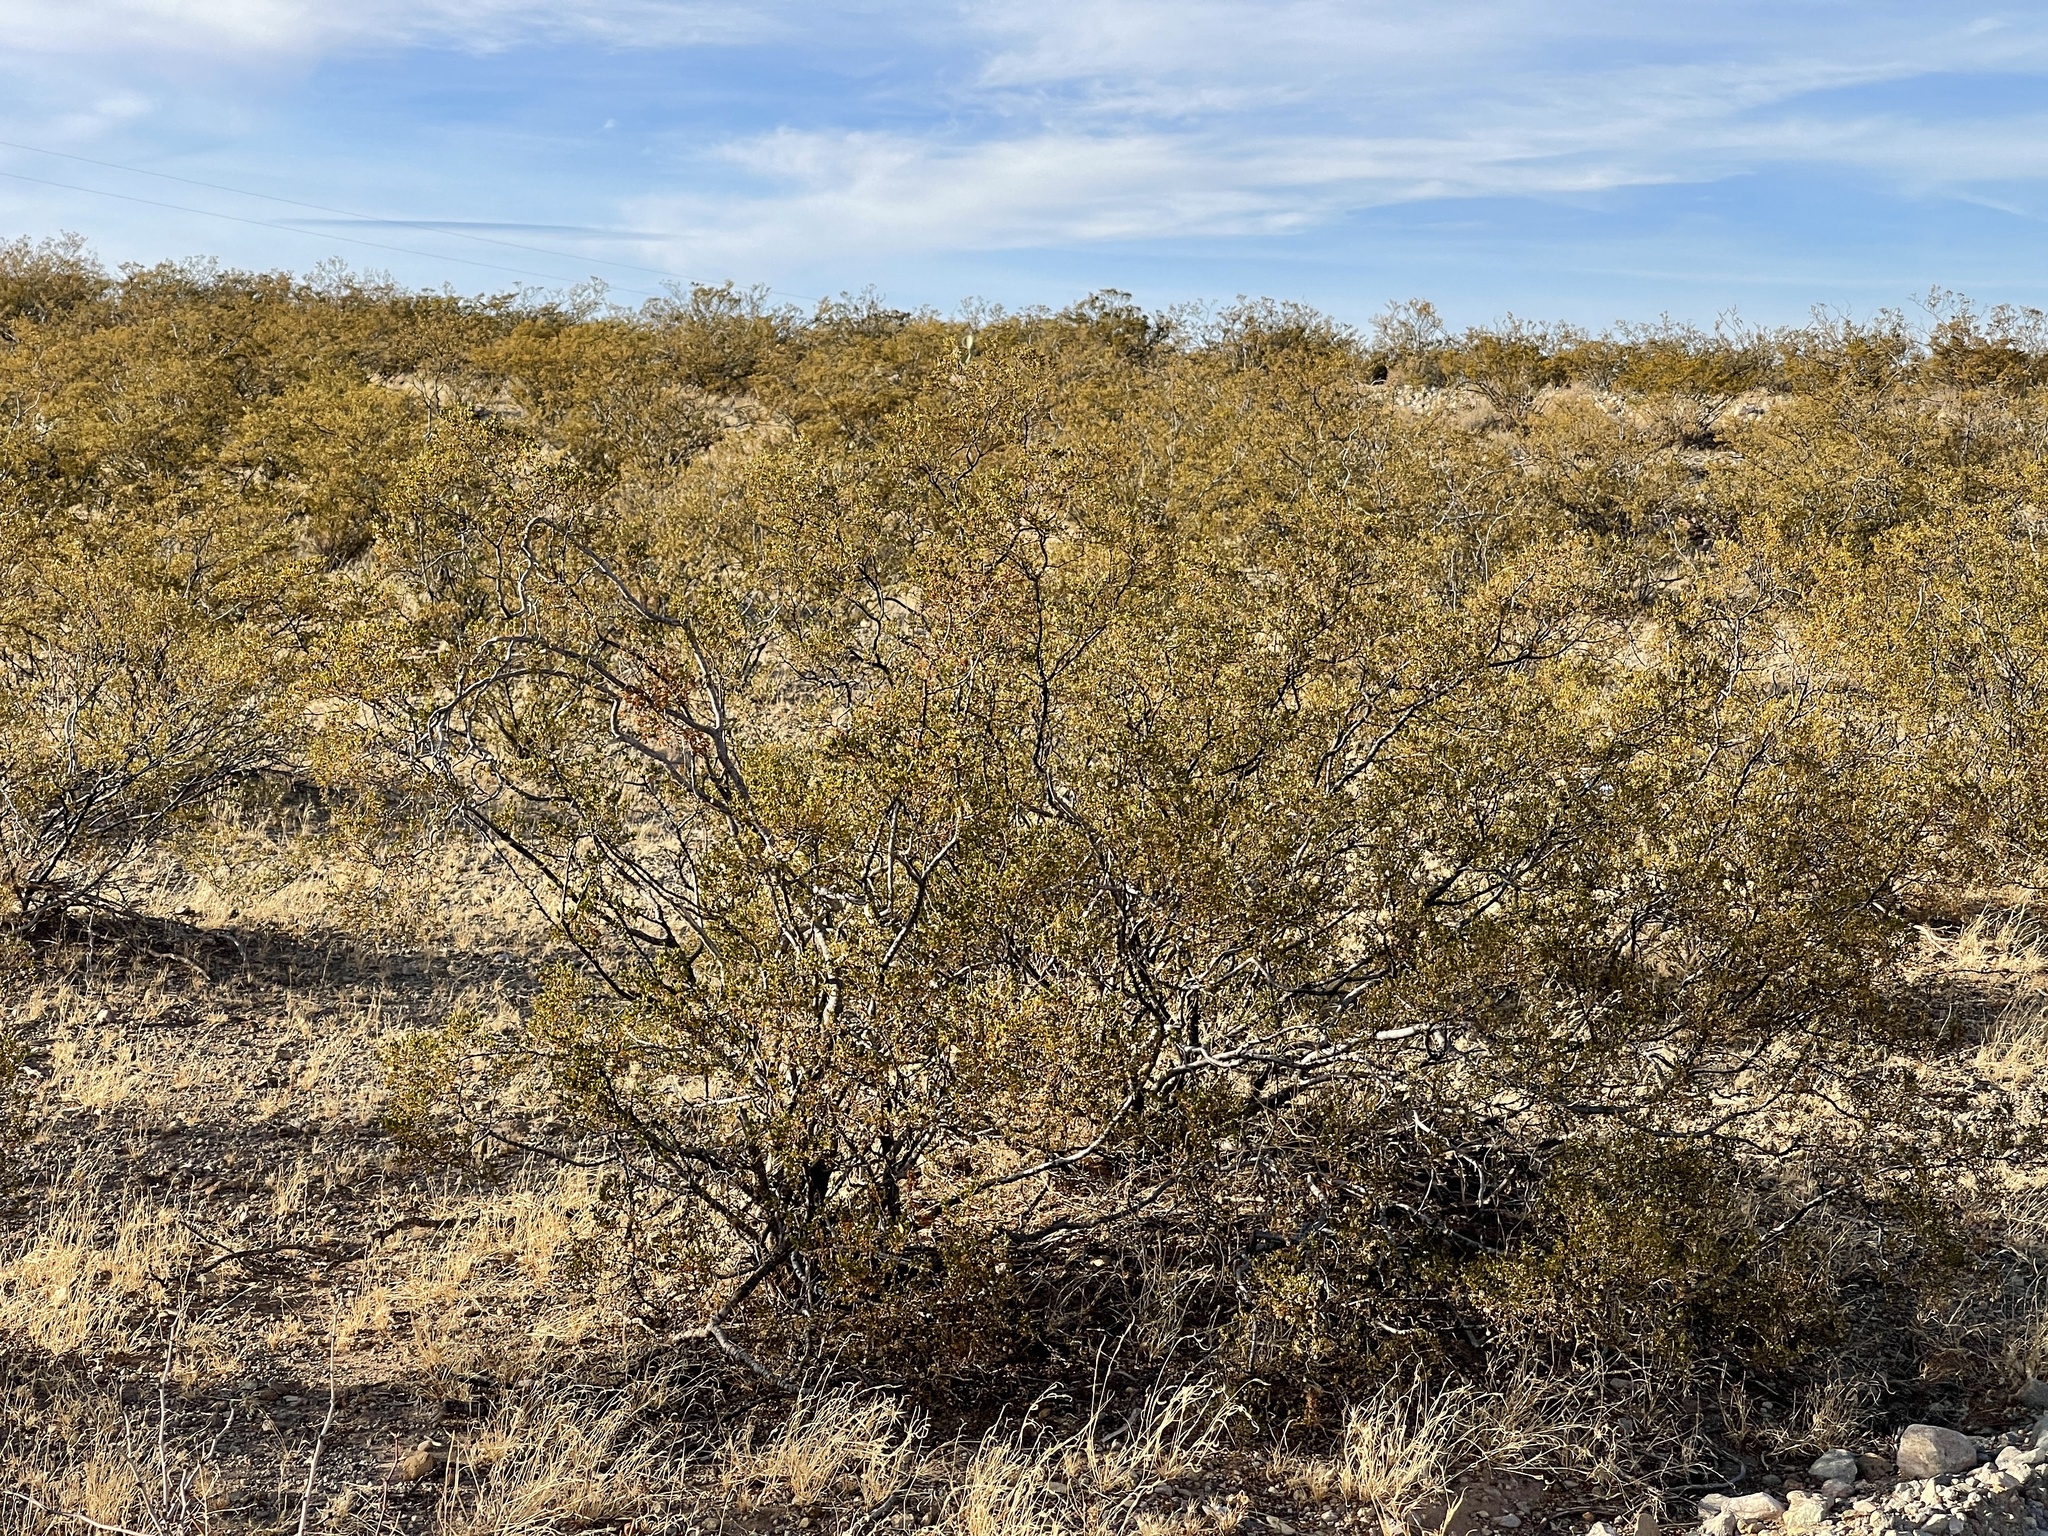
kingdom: Plantae
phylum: Tracheophyta
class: Magnoliopsida
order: Zygophyllales
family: Zygophyllaceae
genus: Larrea
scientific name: Larrea tridentata
